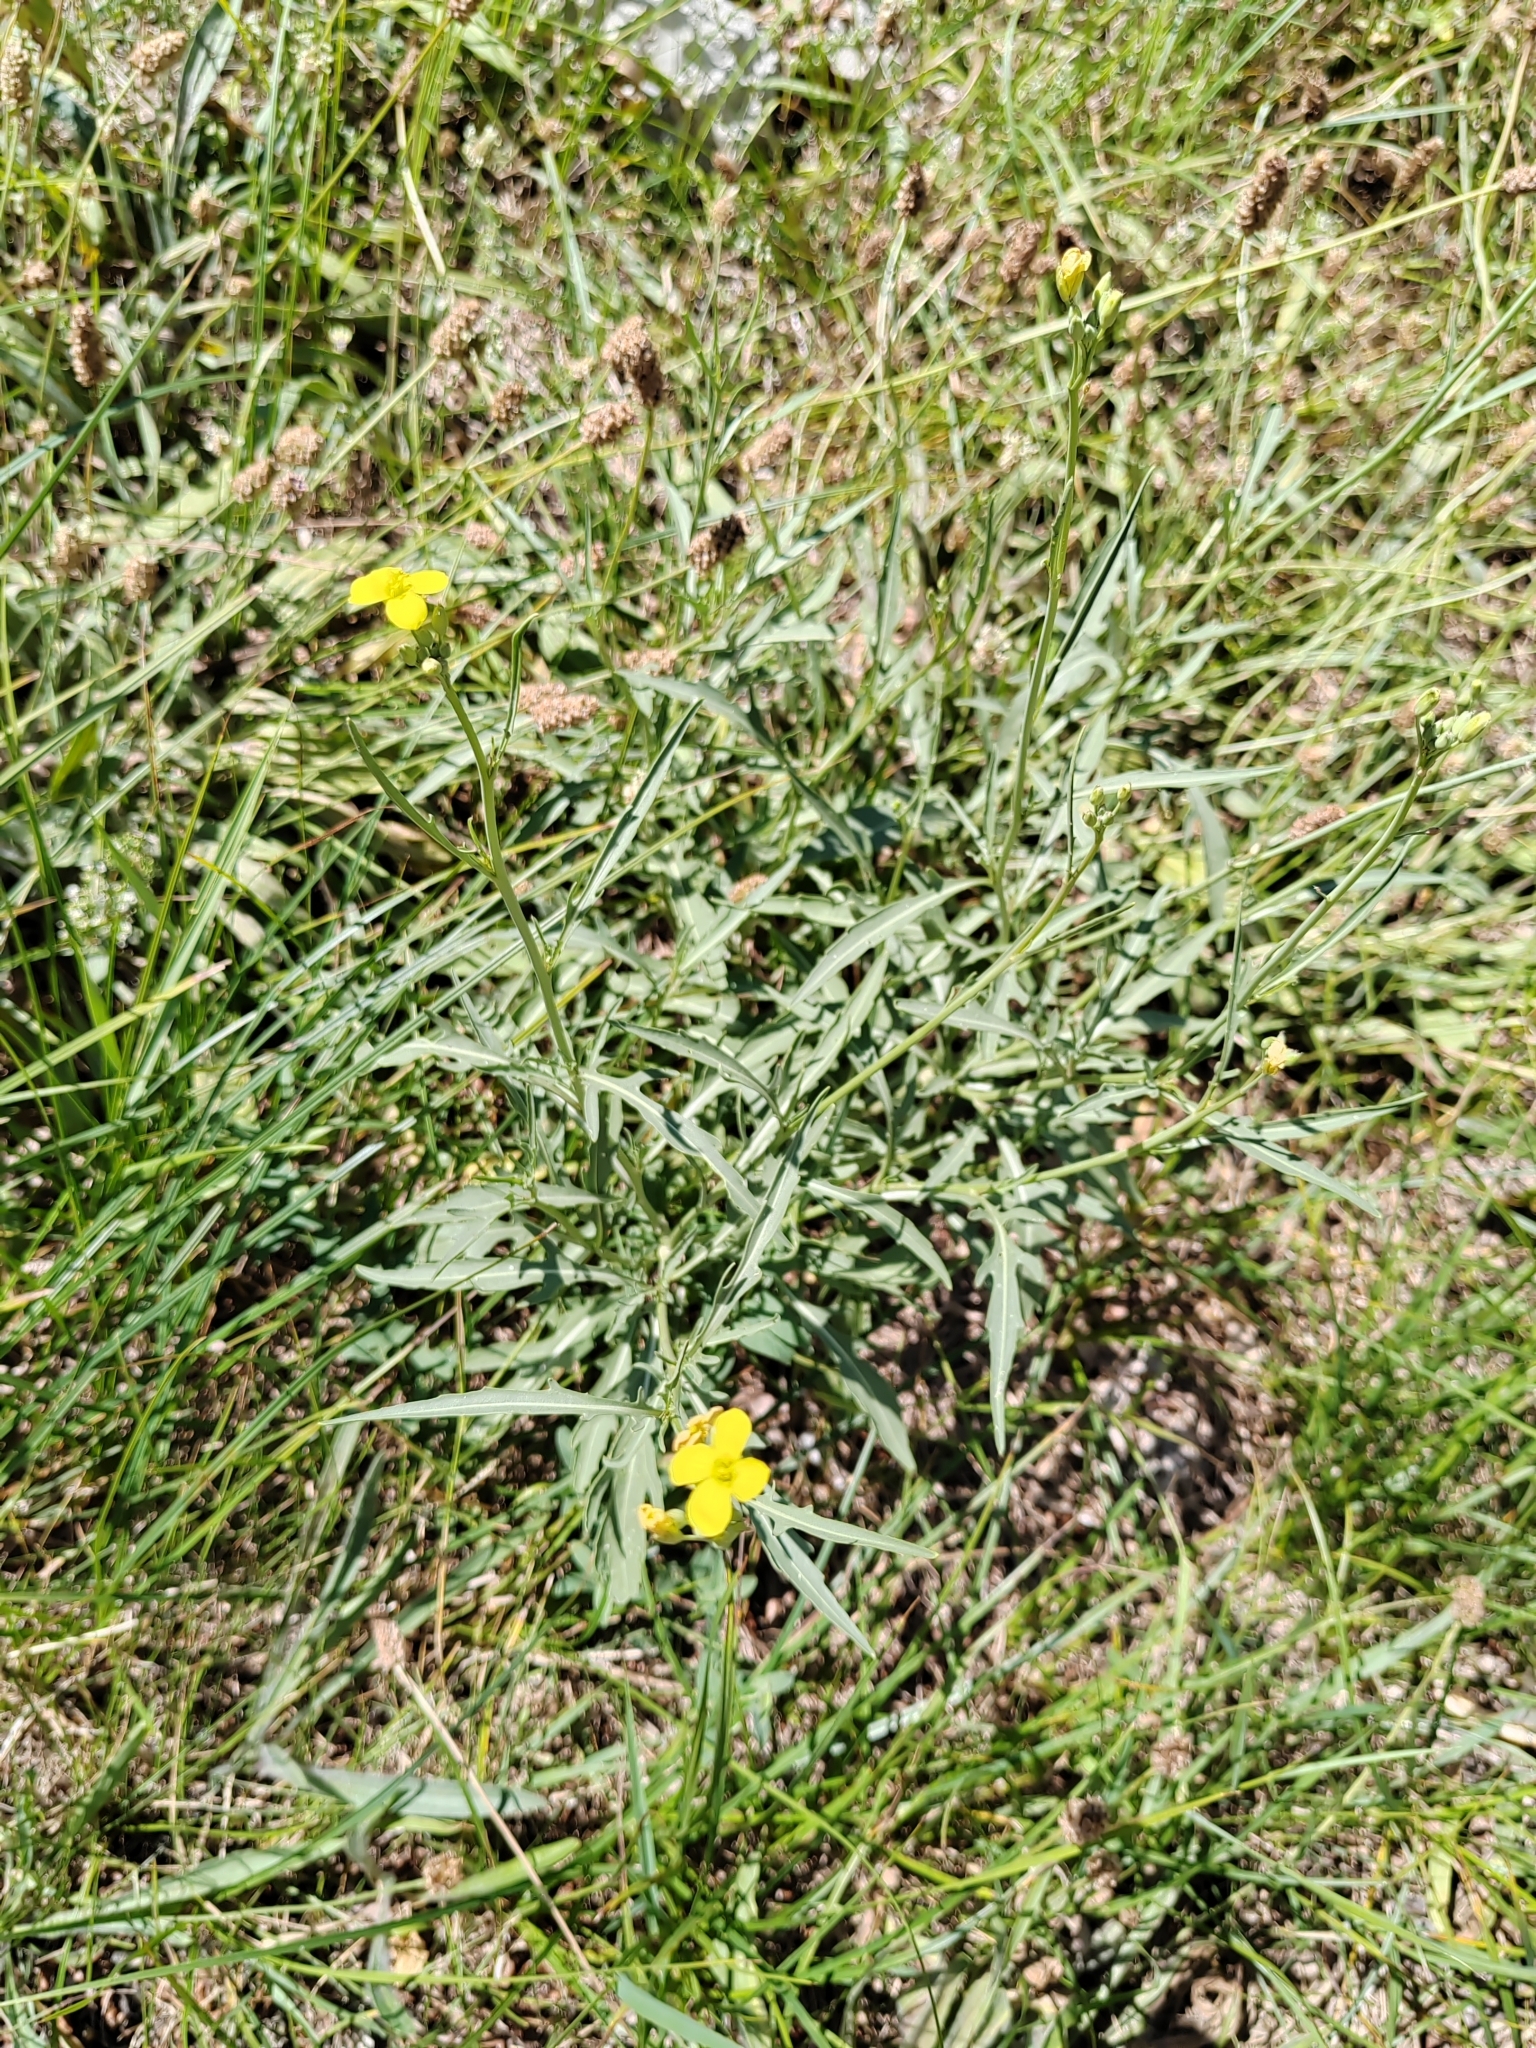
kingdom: Plantae
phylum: Tracheophyta
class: Magnoliopsida
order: Brassicales
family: Brassicaceae
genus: Diplotaxis
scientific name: Diplotaxis tenuifolia
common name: Perennial wall-rocket
